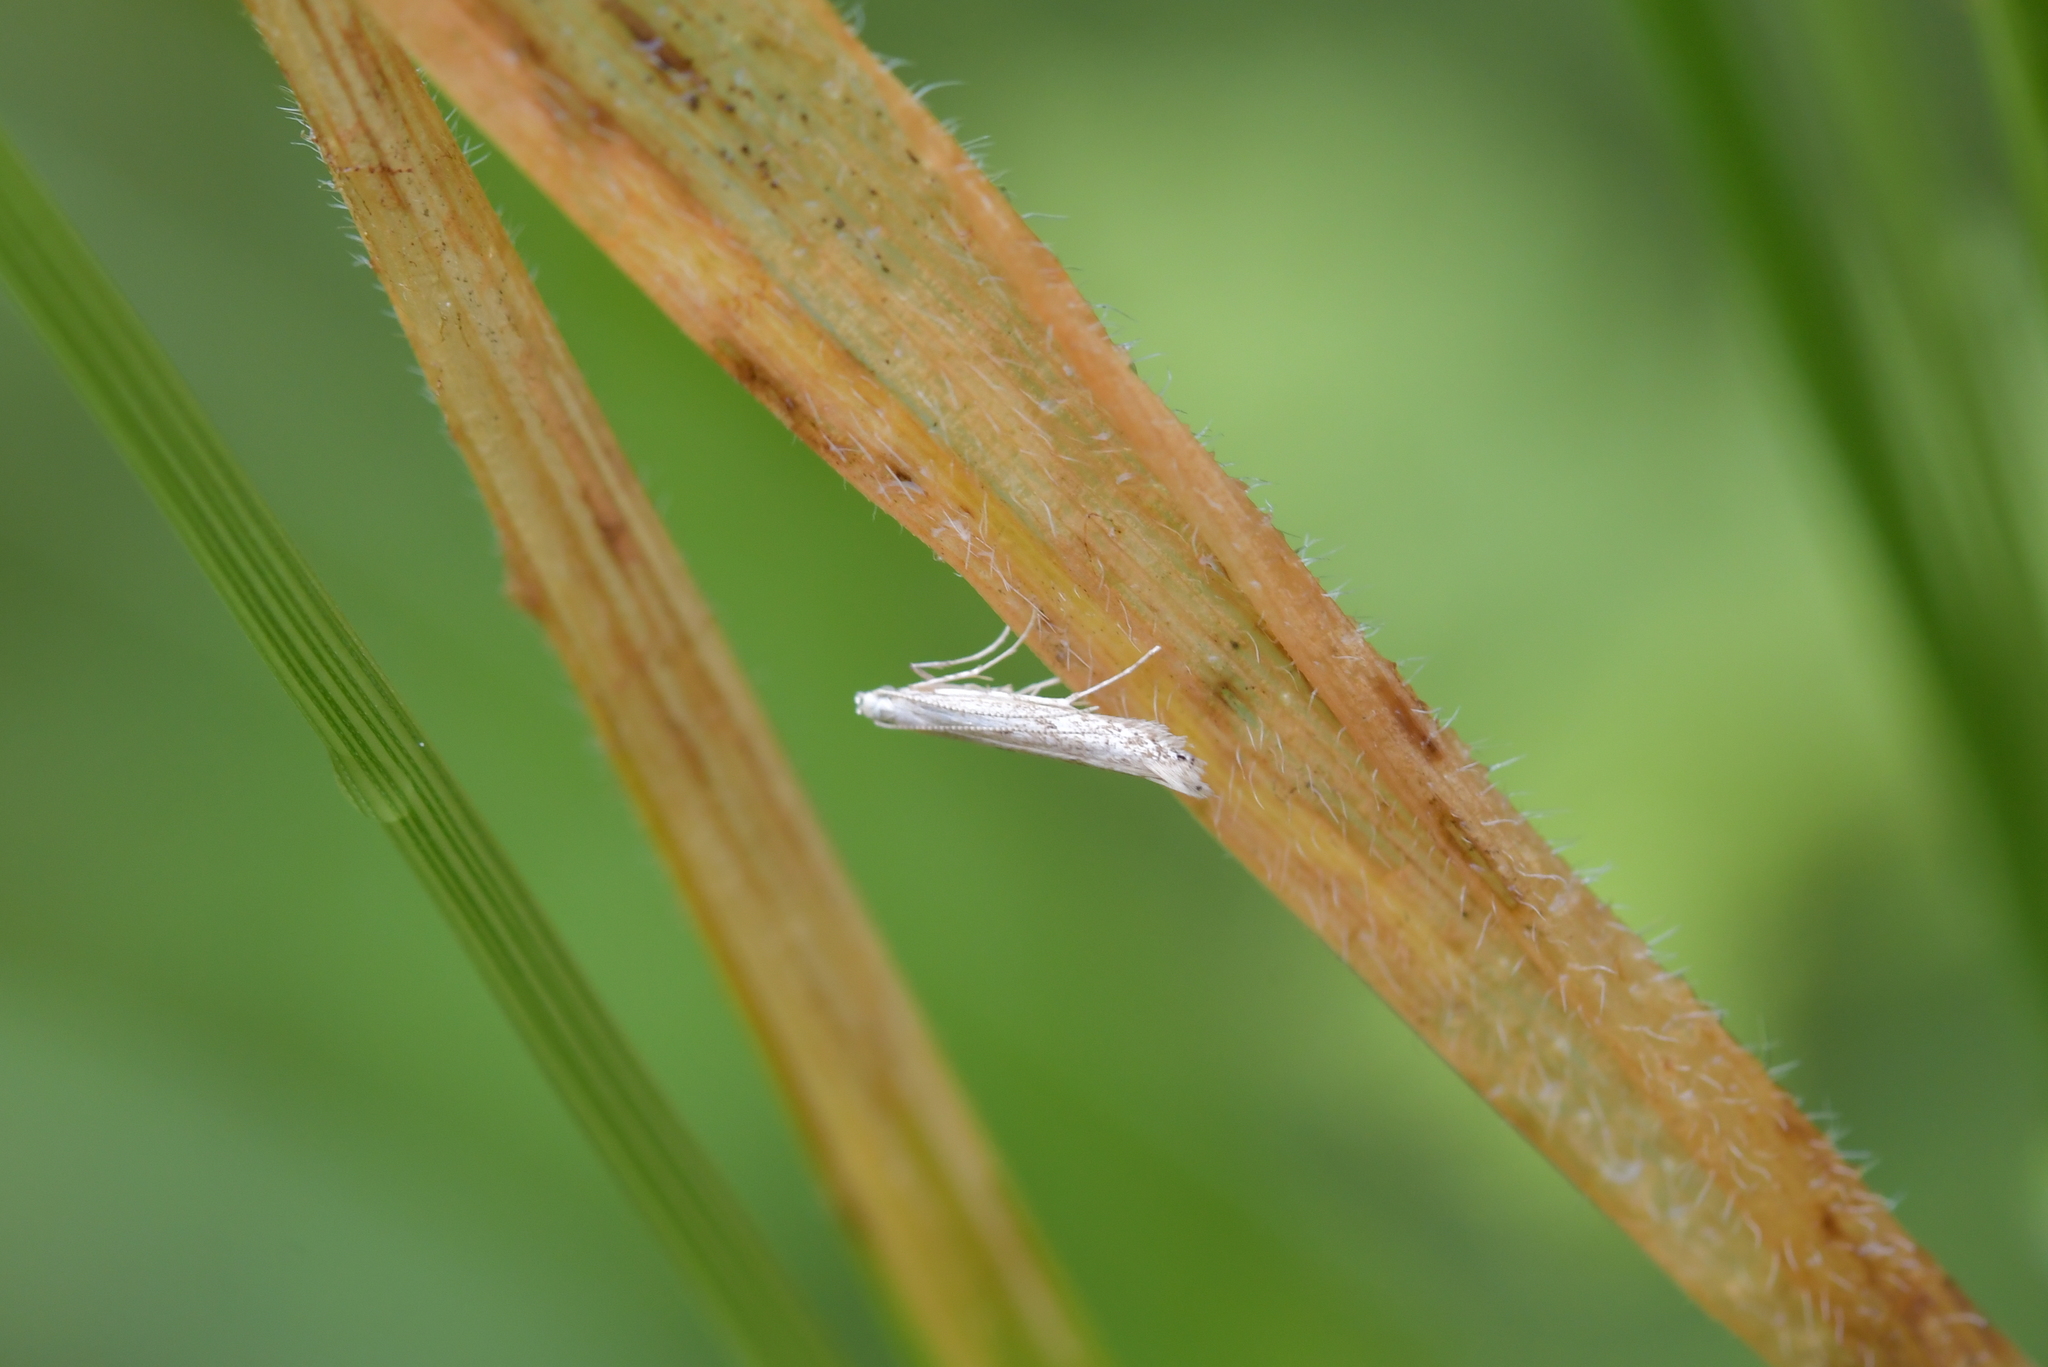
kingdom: Animalia
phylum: Arthropoda
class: Insecta
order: Lepidoptera
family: Batrachedridae
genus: Batrachedra
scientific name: Batrachedra psithyra
